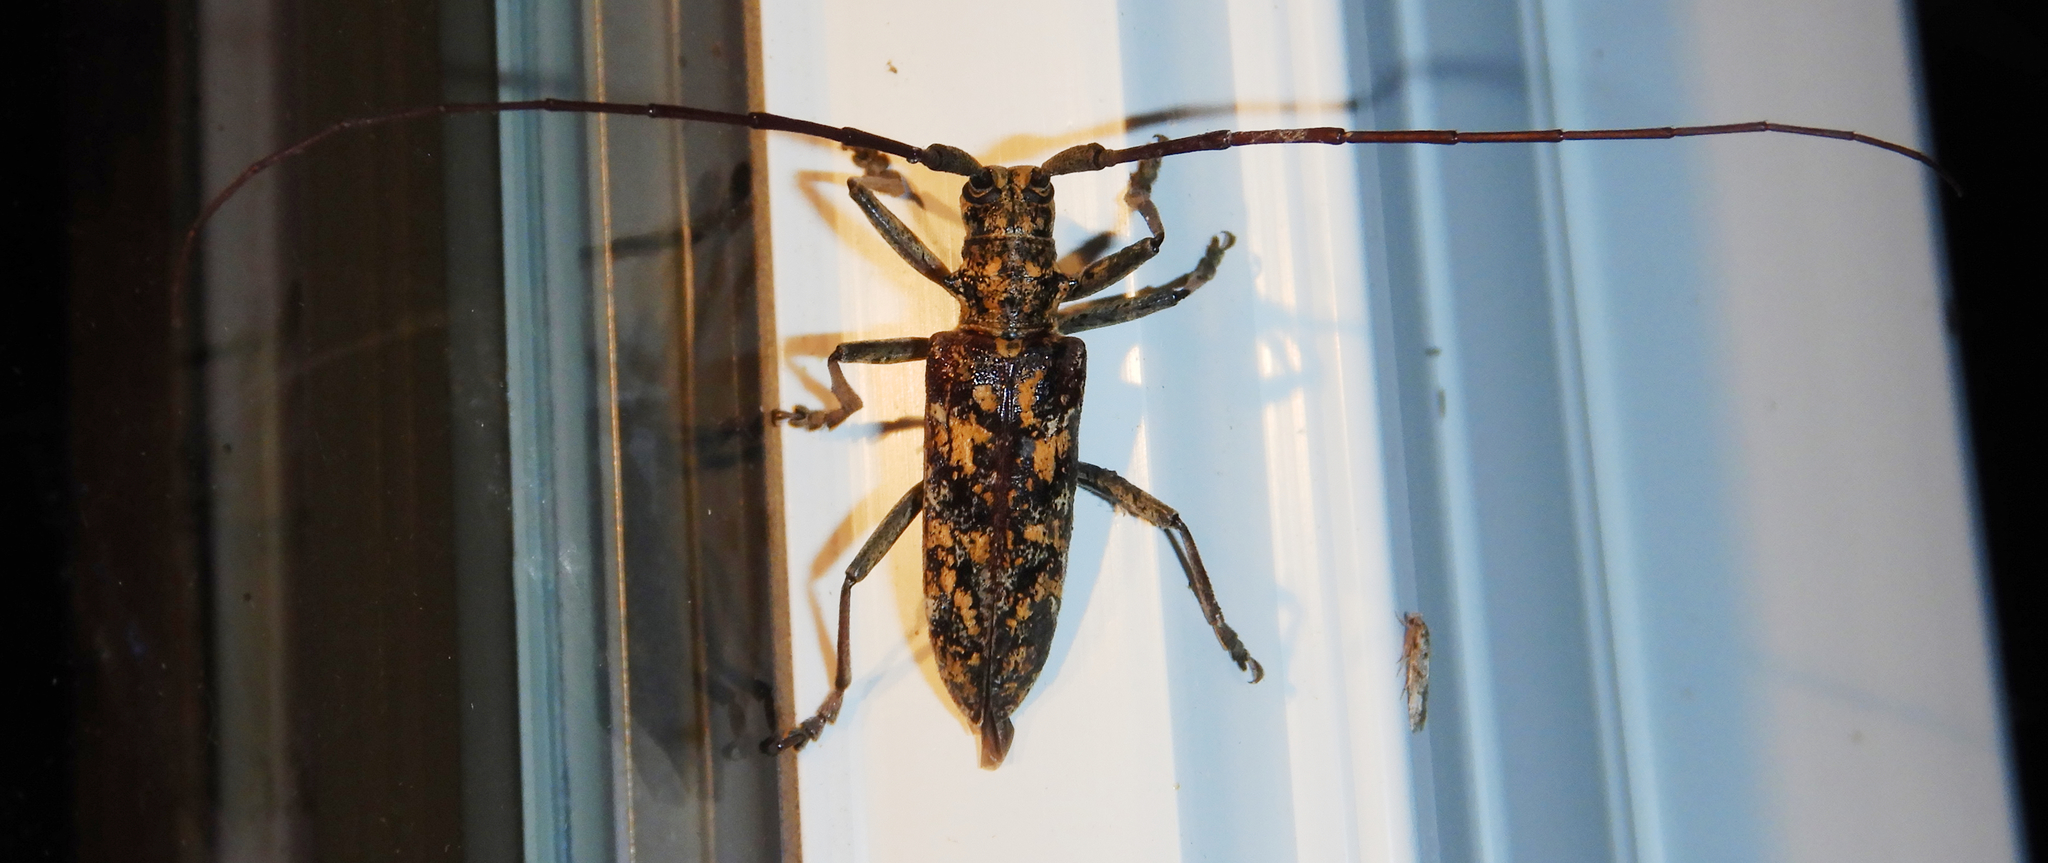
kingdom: Animalia
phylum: Arthropoda
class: Insecta
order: Coleoptera
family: Cerambycidae
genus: Monochamus
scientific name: Monochamus marmorator
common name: Balsam fir sawyer
